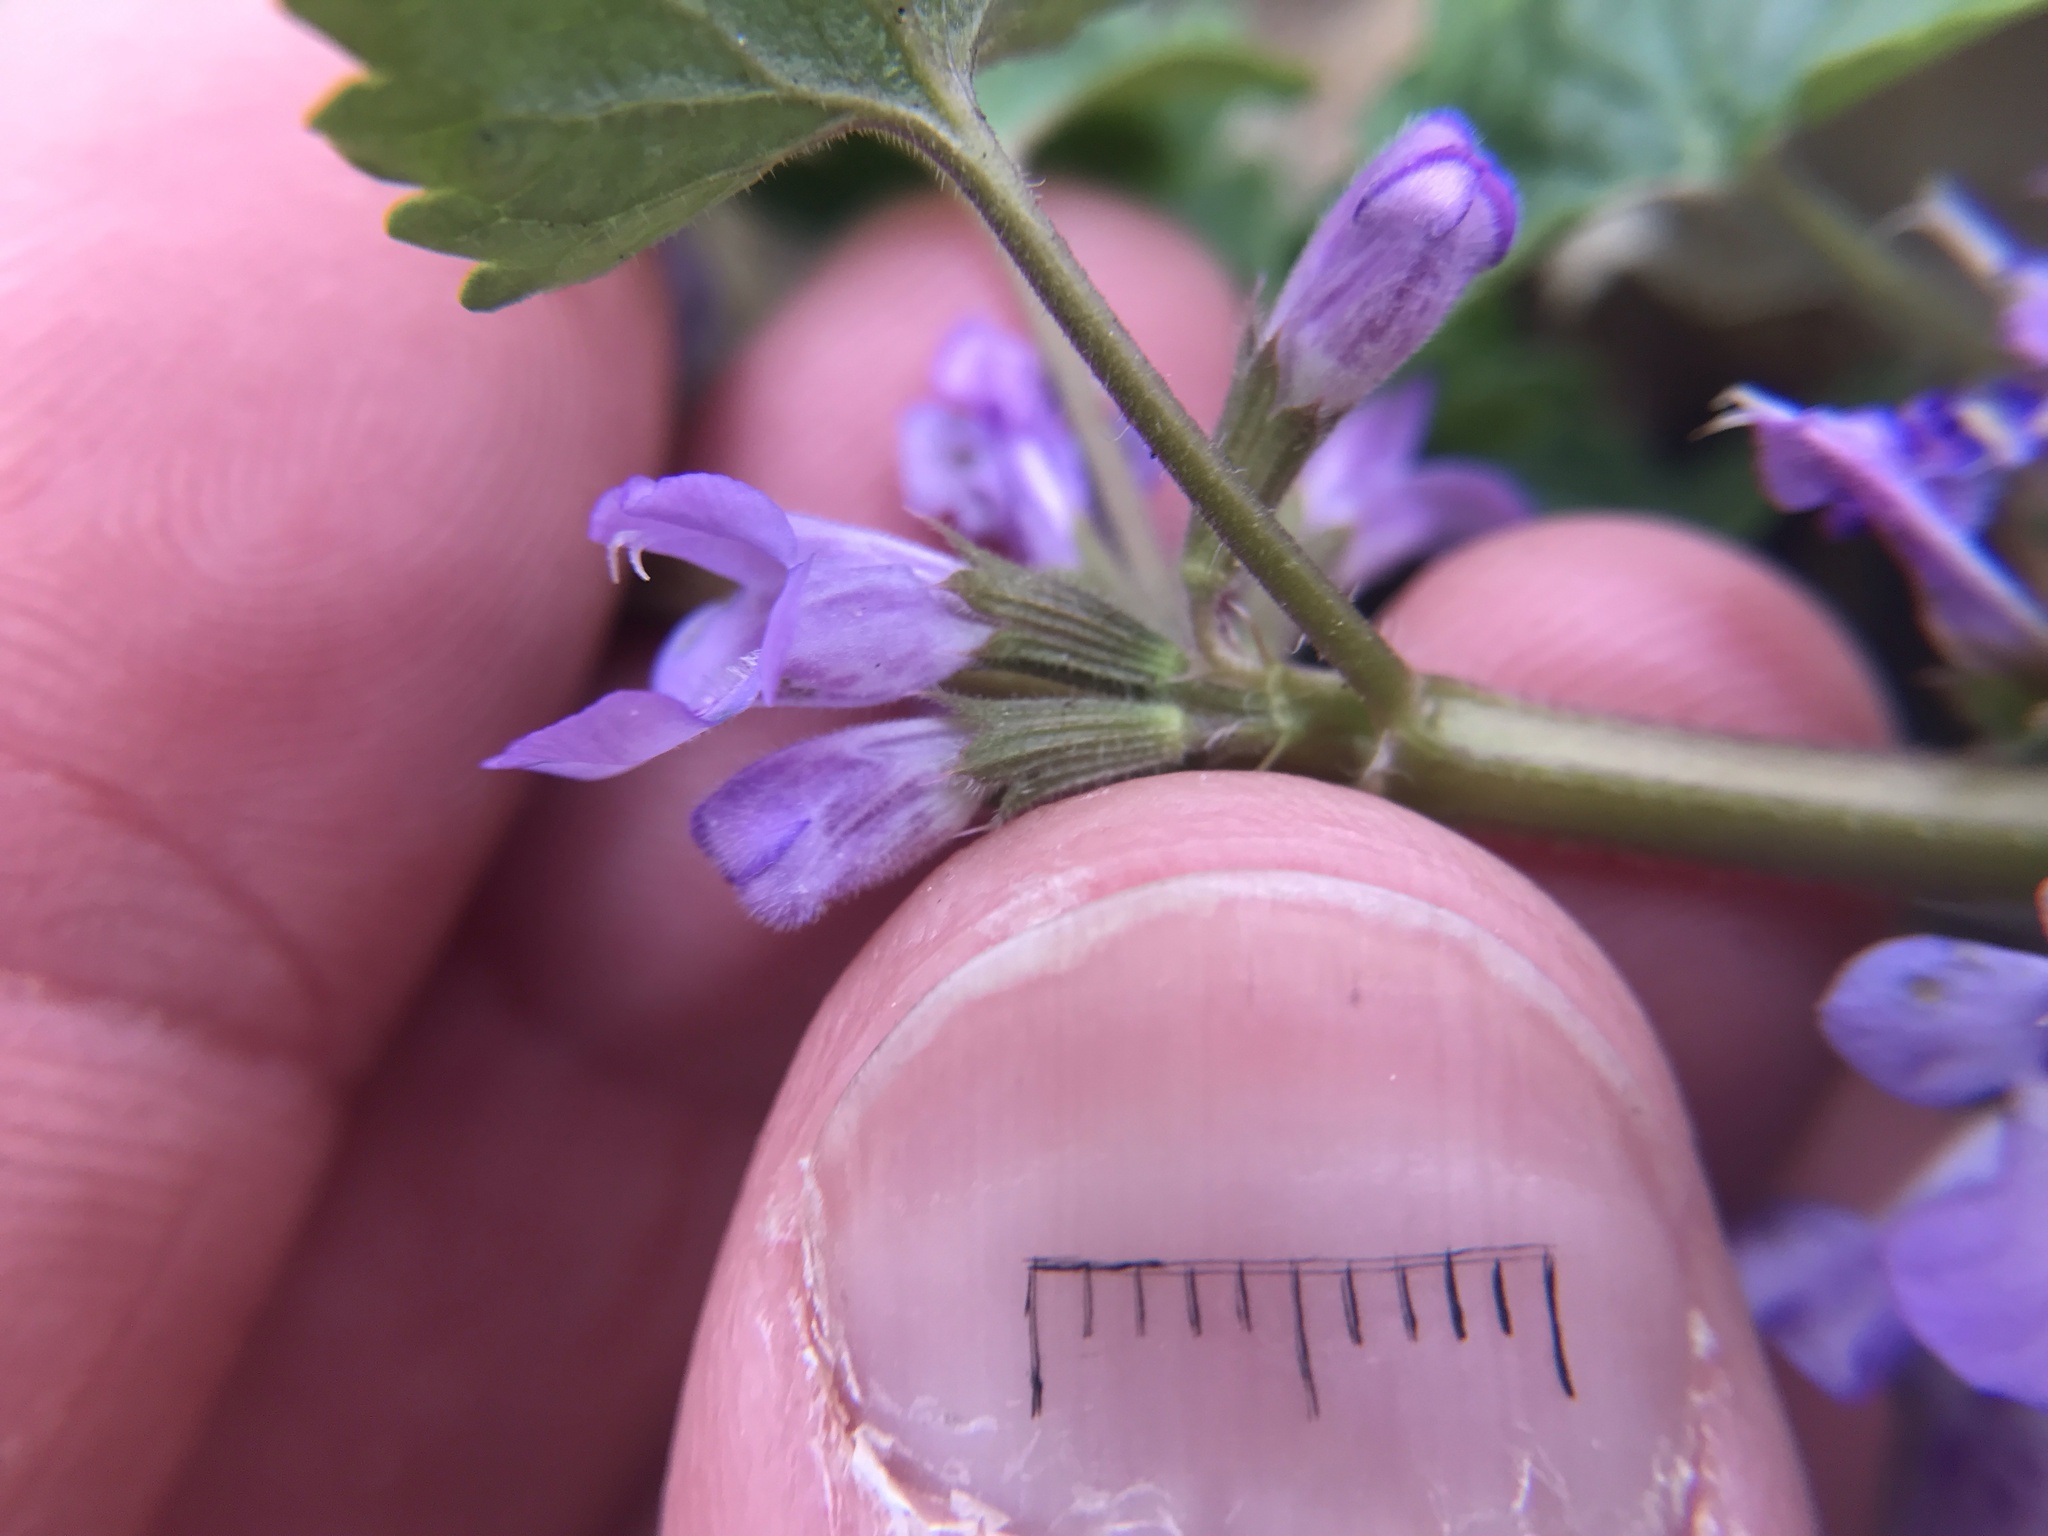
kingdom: Plantae
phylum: Tracheophyta
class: Magnoliopsida
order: Lamiales
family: Lamiaceae
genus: Glechoma
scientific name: Glechoma hederacea
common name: Ground ivy
